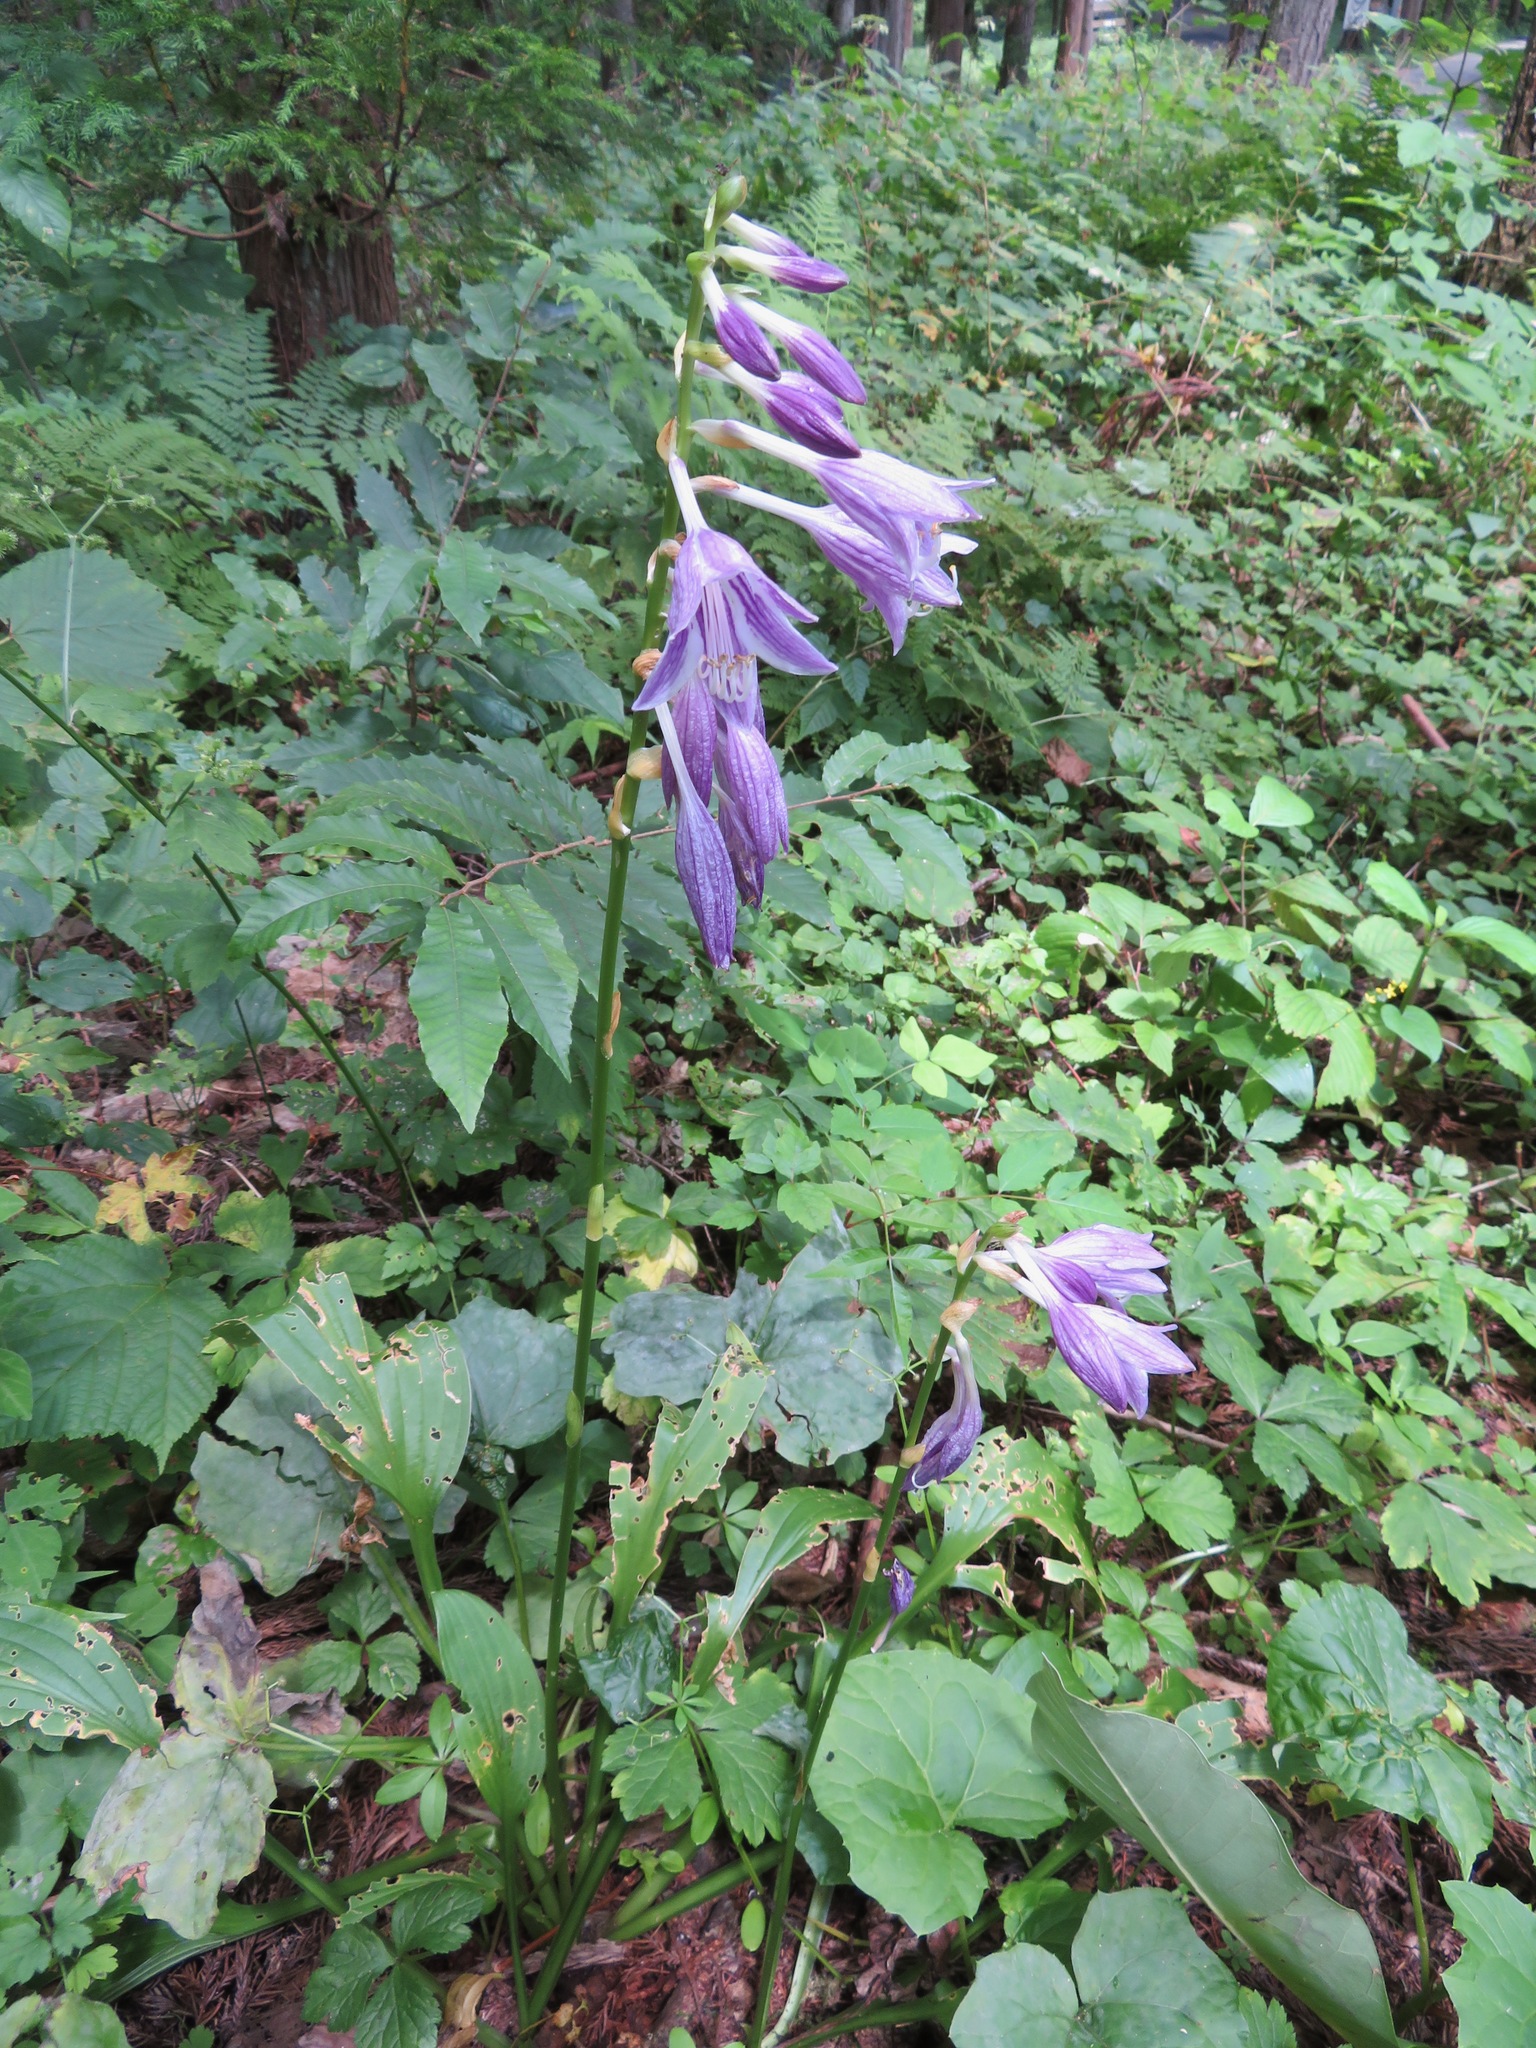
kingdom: Plantae
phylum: Tracheophyta
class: Liliopsida
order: Asparagales
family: Asparagaceae
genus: Hosta
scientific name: Hosta sieboldii
